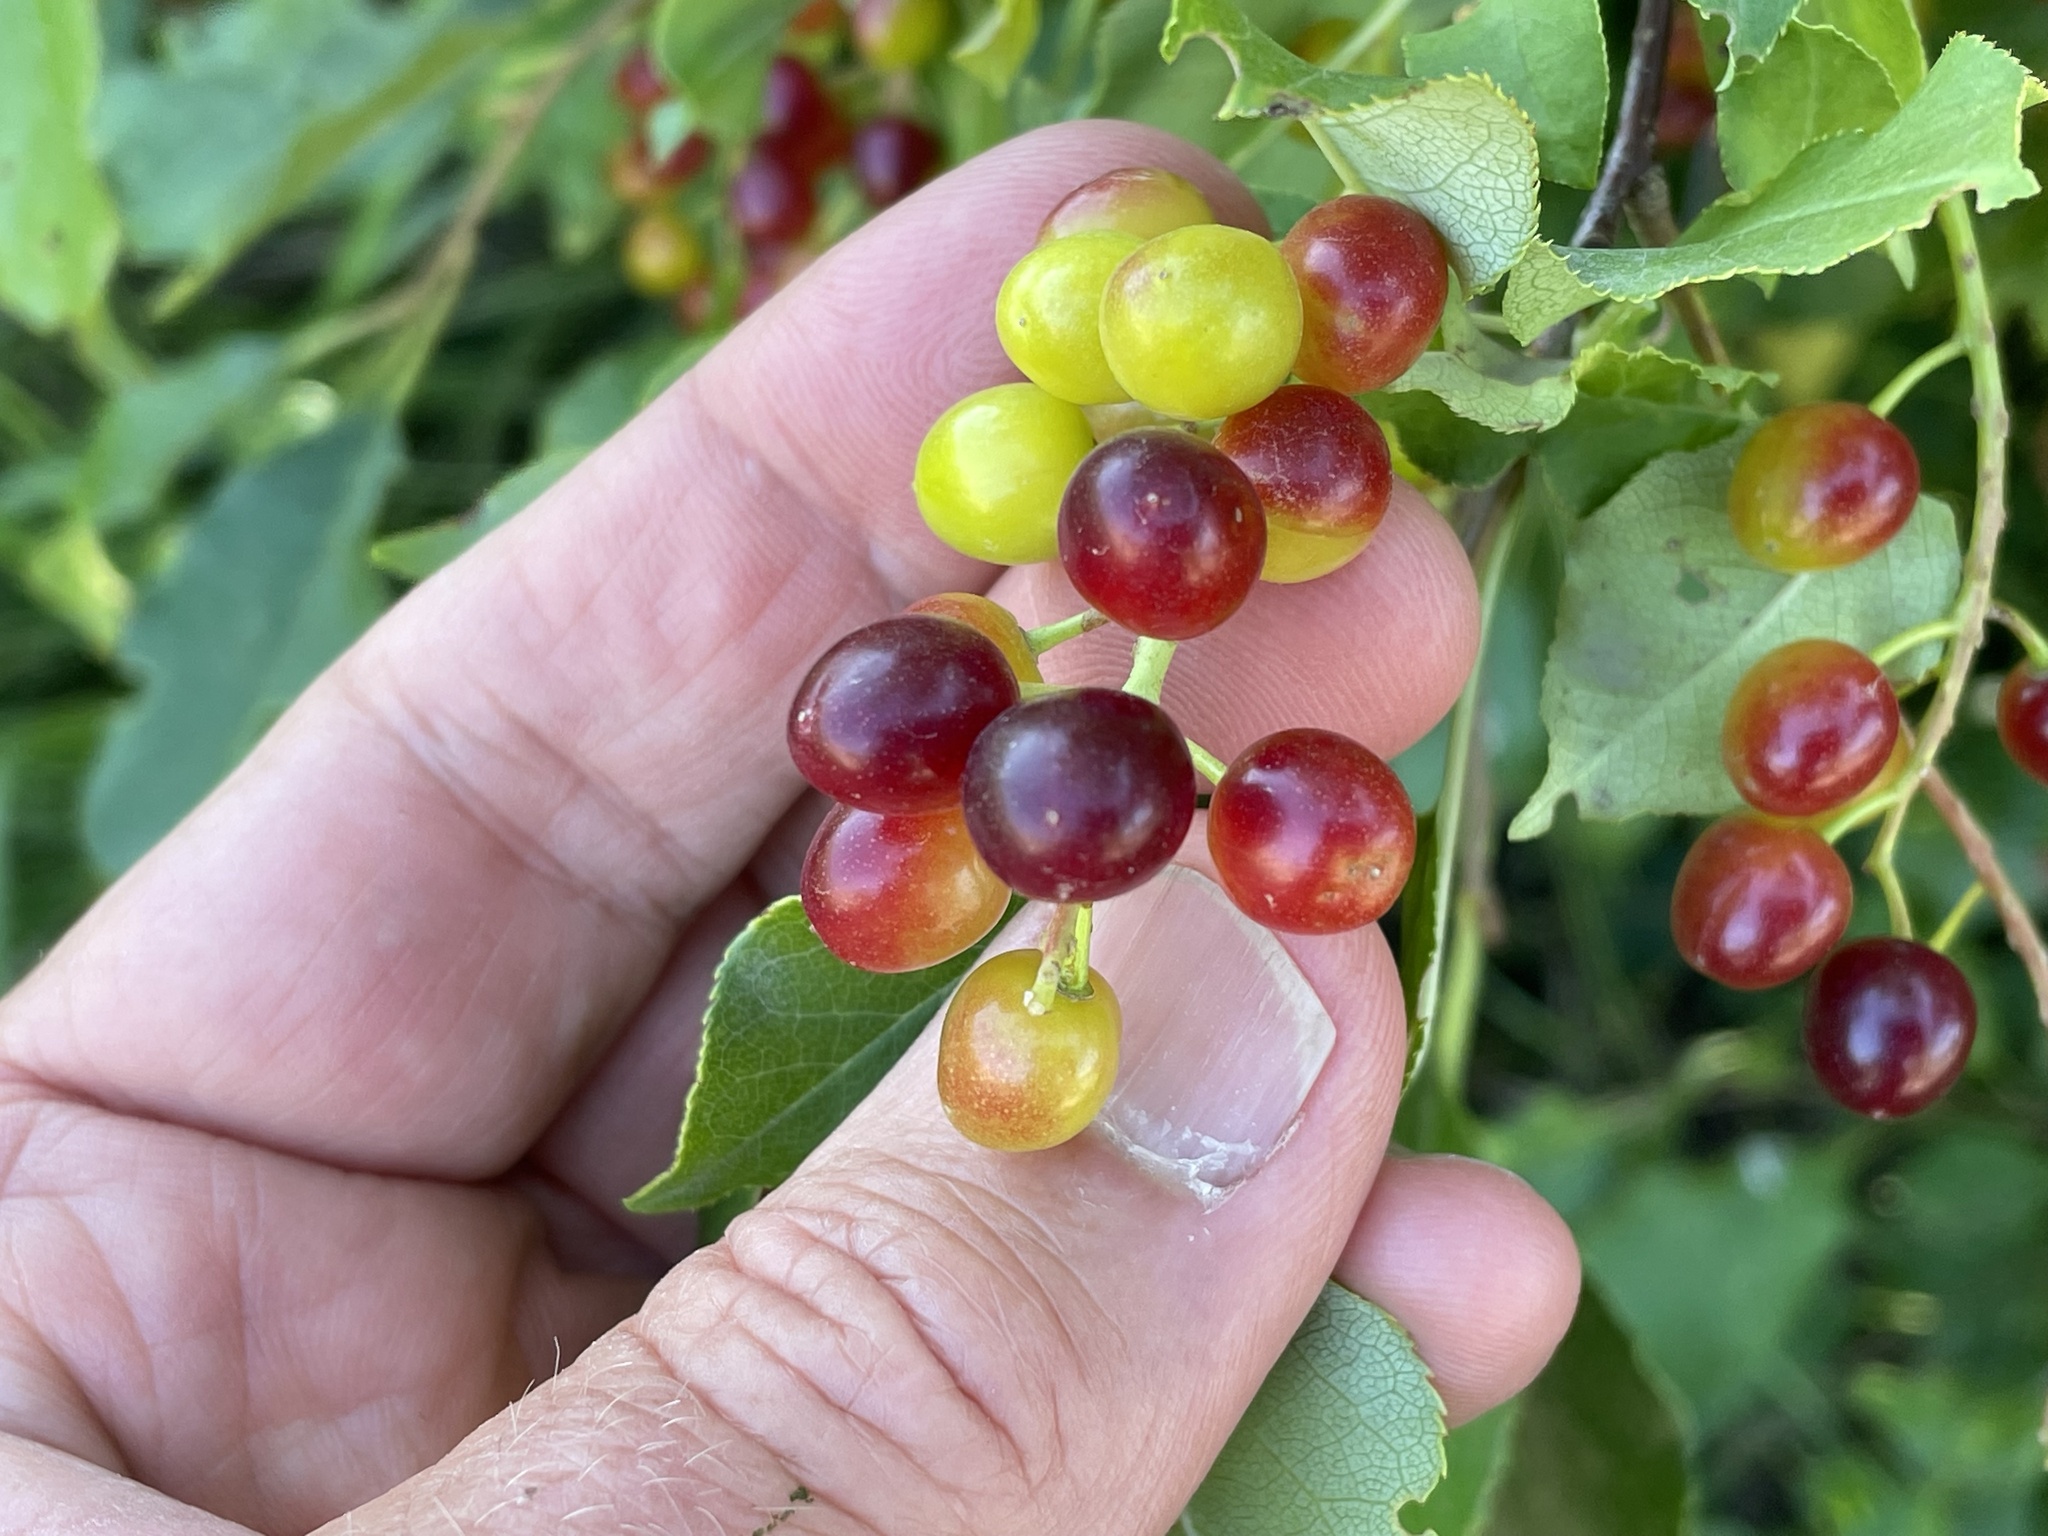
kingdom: Plantae
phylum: Tracheophyta
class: Magnoliopsida
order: Rosales
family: Rosaceae
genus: Prunus
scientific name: Prunus virginiana
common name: Chokecherry
